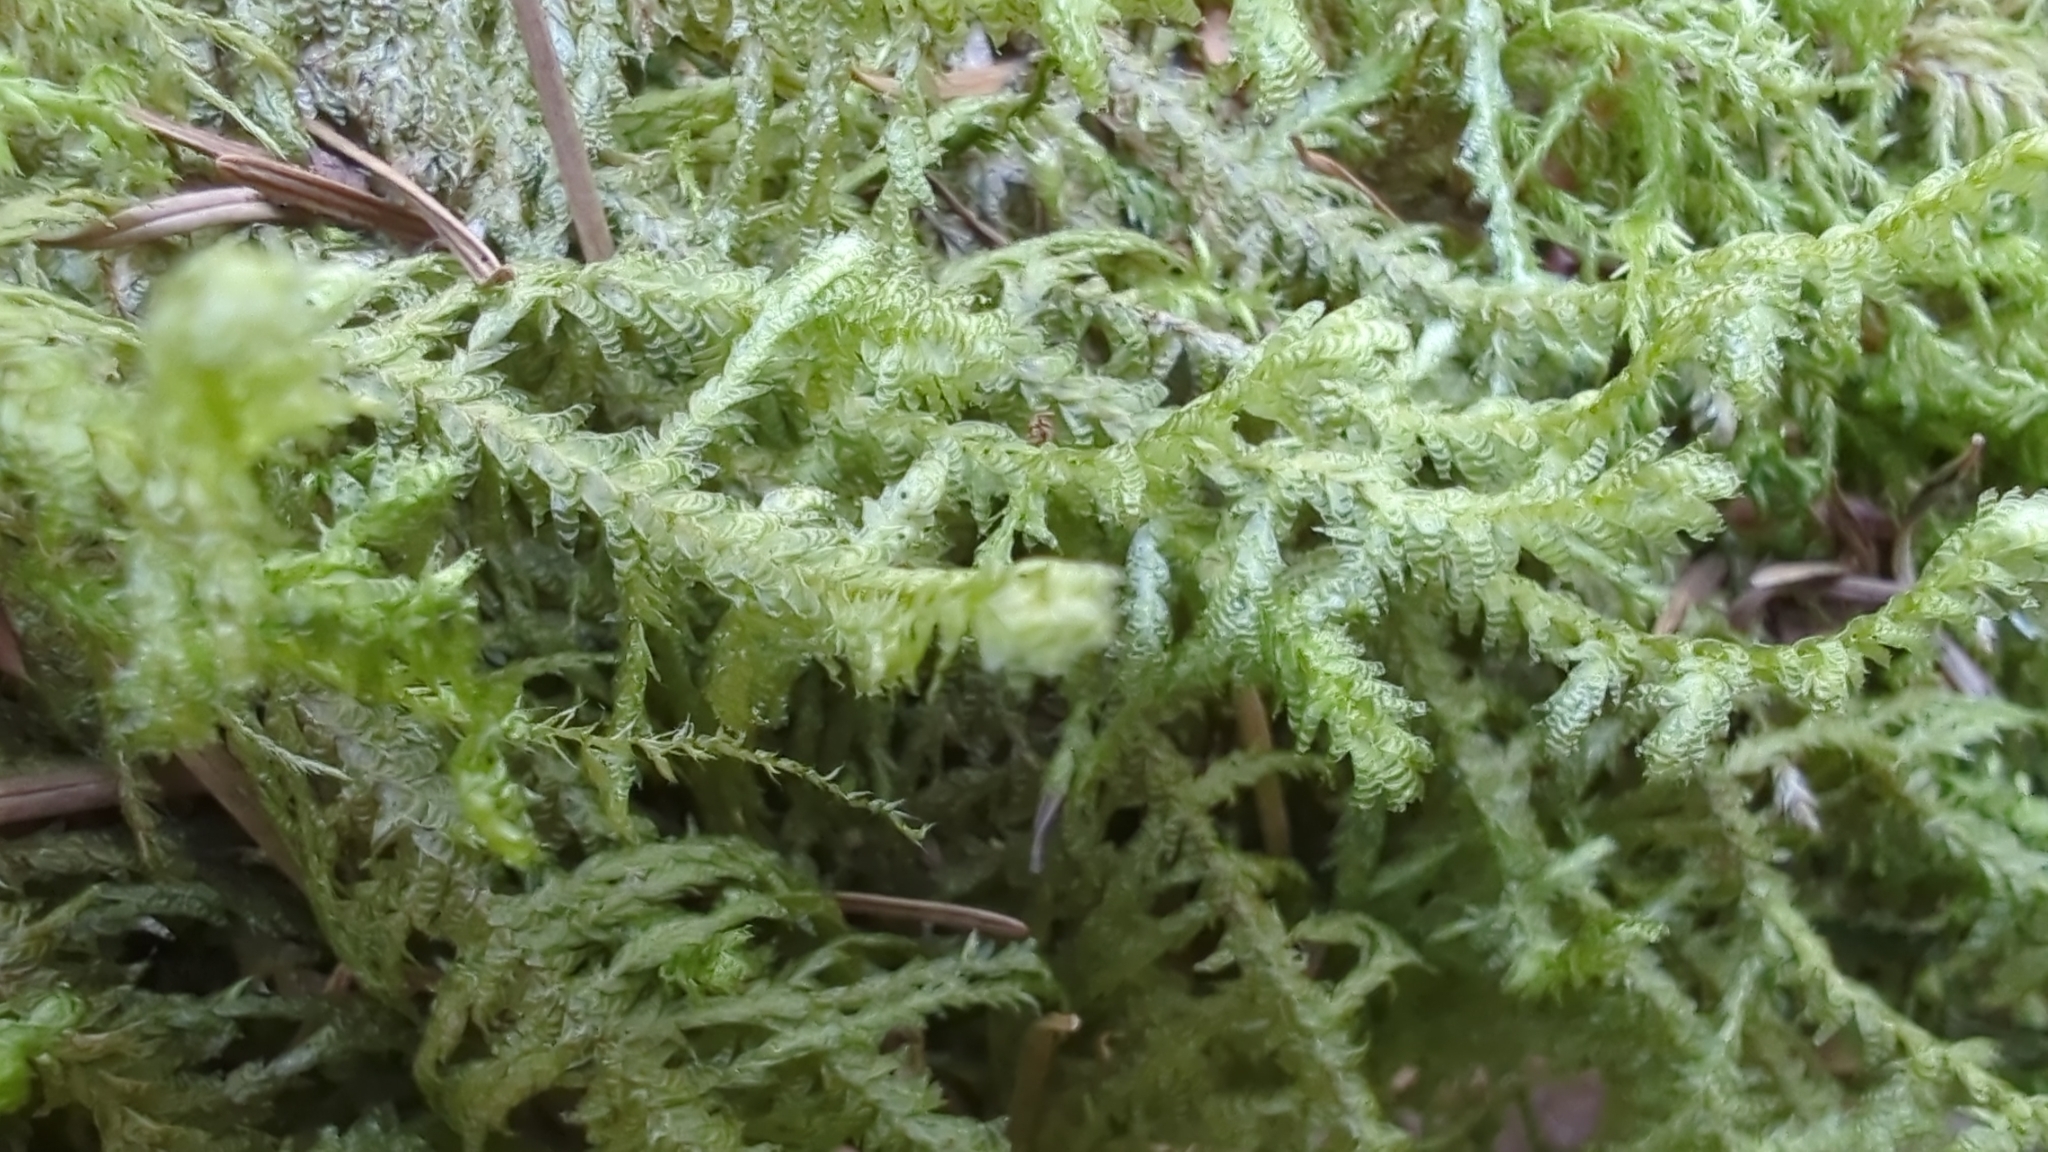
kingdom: Plantae
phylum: Bryophyta
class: Bryopsida
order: Hypnales
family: Neckeraceae
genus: Neckera
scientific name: Neckera douglasii
